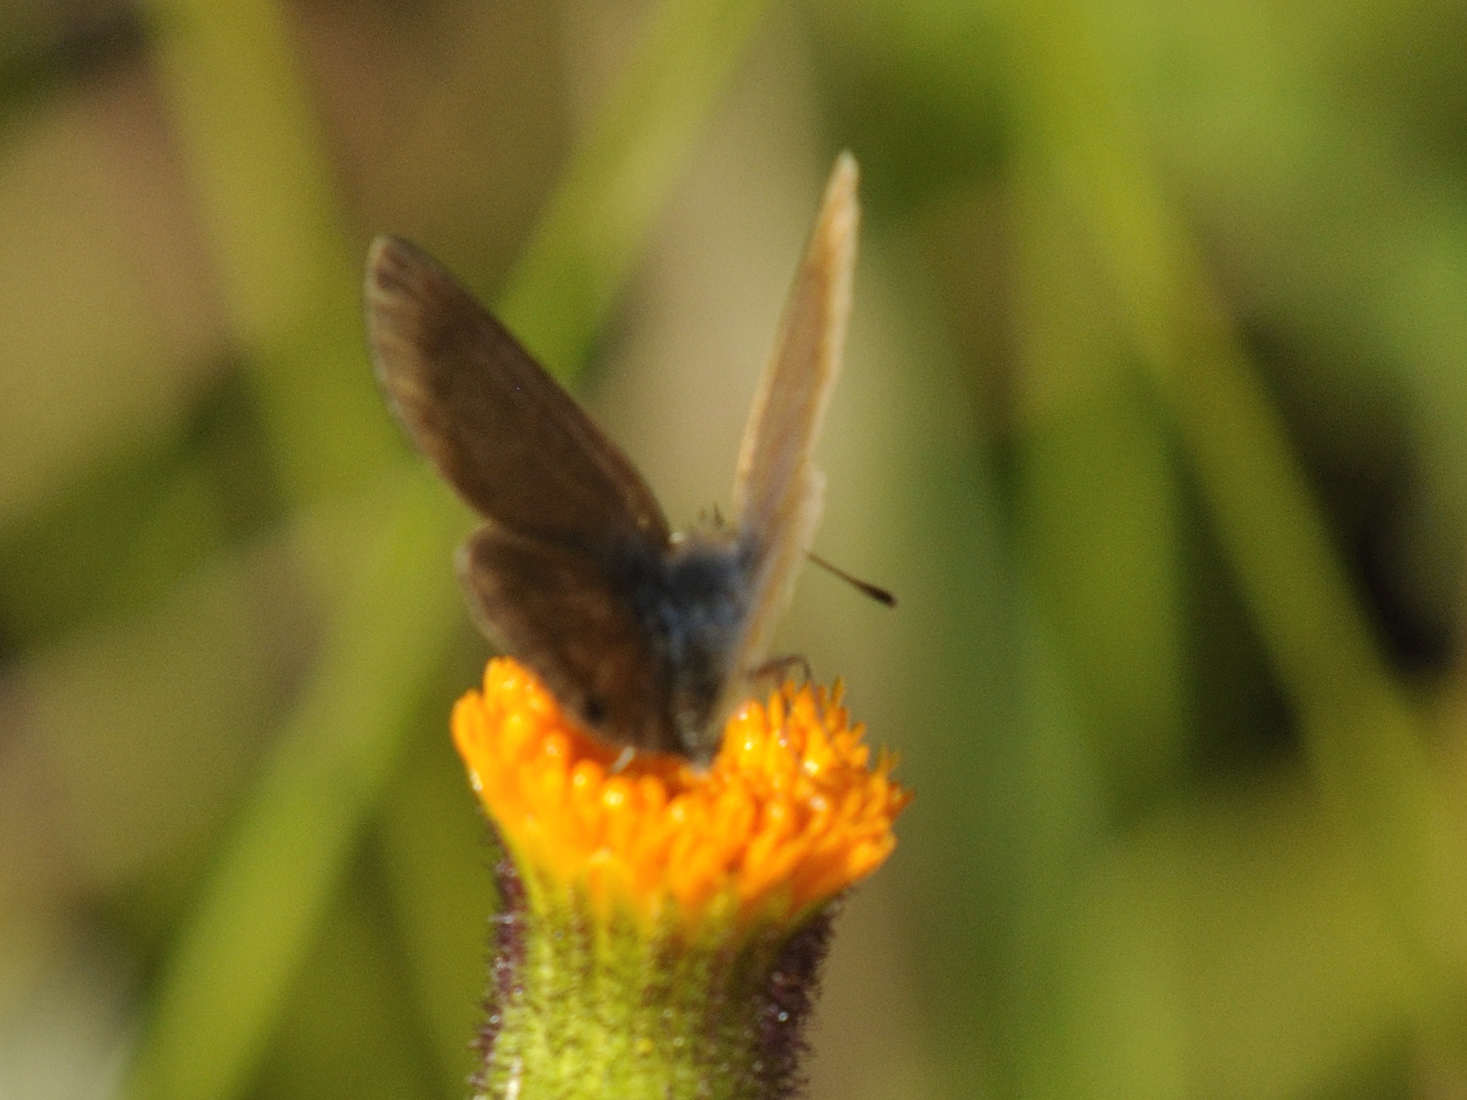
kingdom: Animalia
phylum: Arthropoda
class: Insecta
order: Lepidoptera
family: Lycaenidae
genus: Harpendyreus
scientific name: Harpendyreus juno
